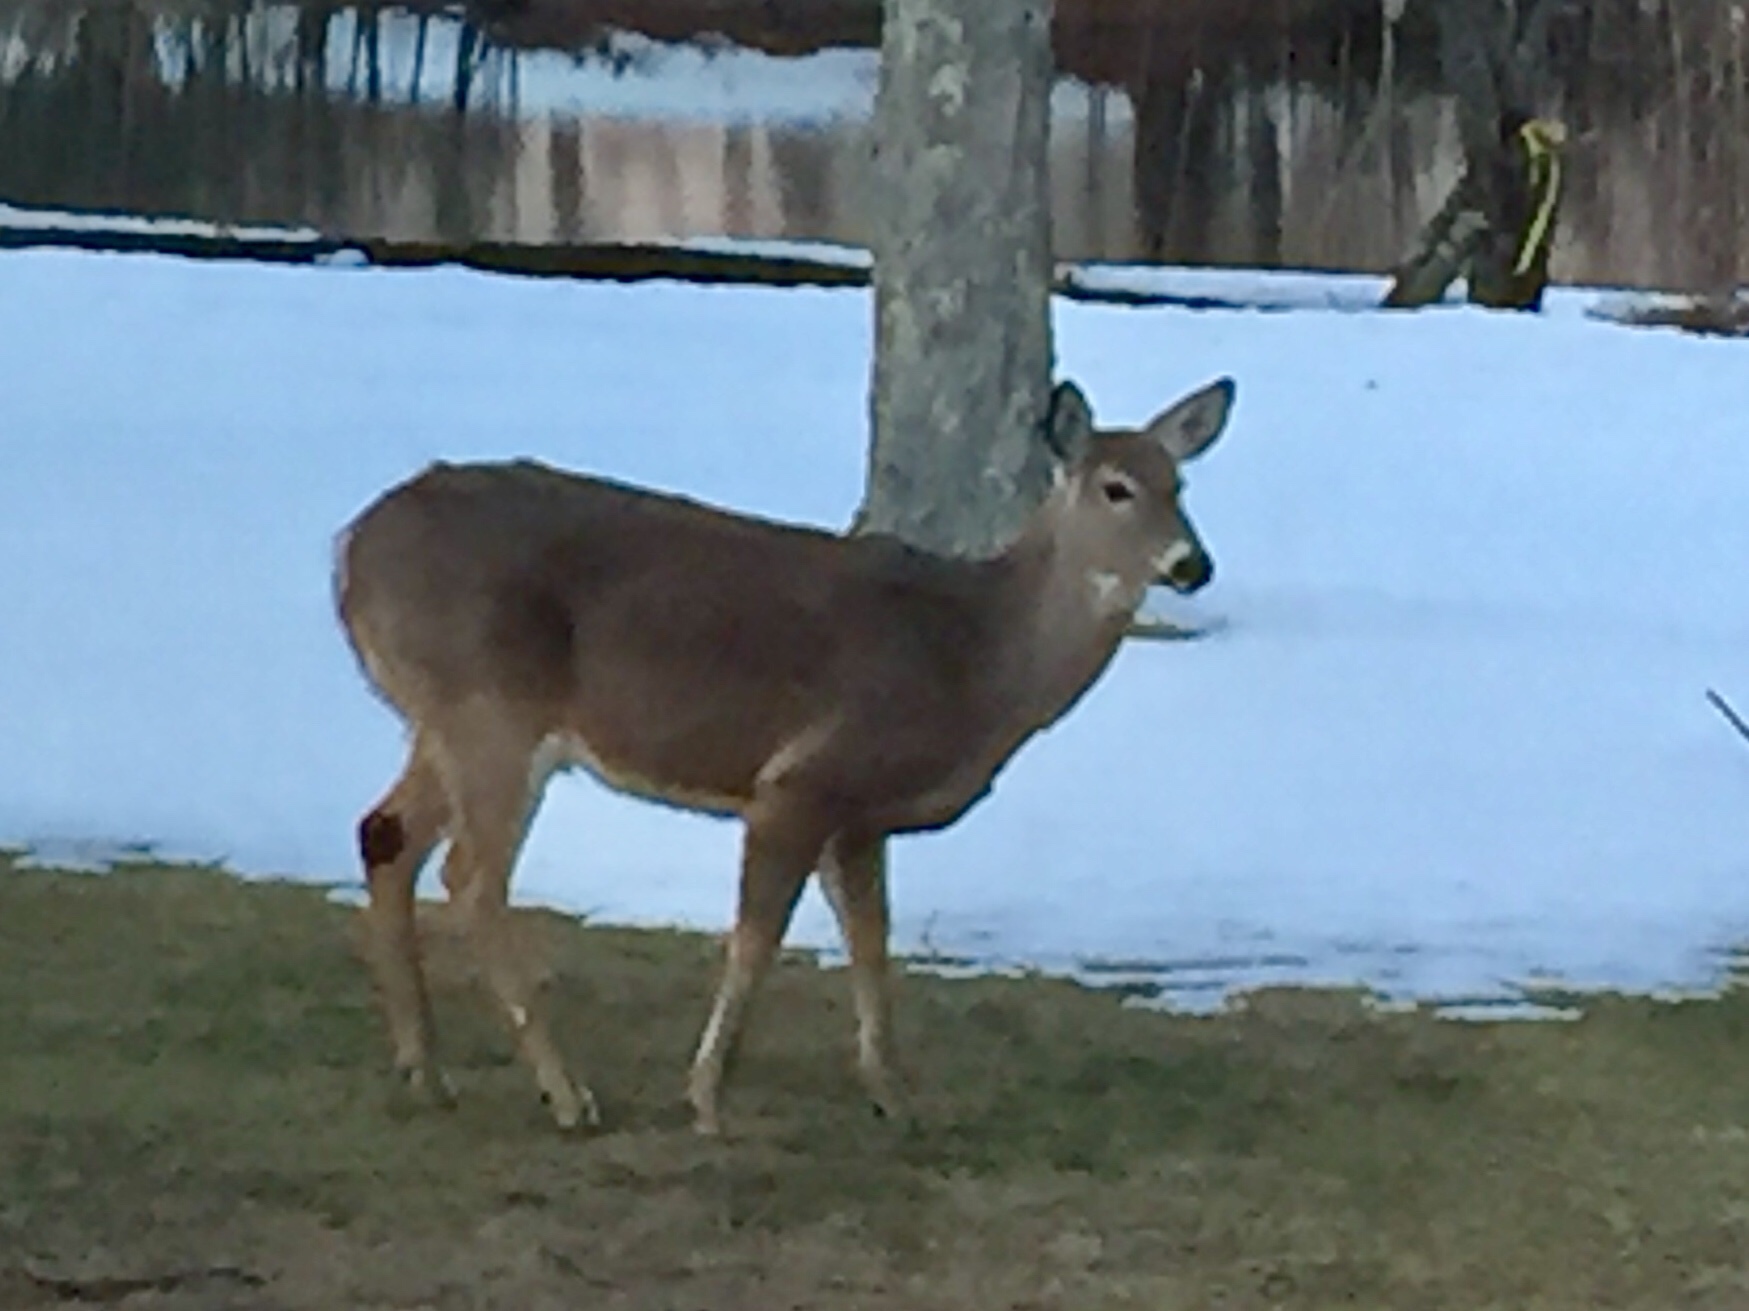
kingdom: Animalia
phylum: Chordata
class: Mammalia
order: Artiodactyla
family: Cervidae
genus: Odocoileus
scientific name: Odocoileus virginianus
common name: White-tailed deer
